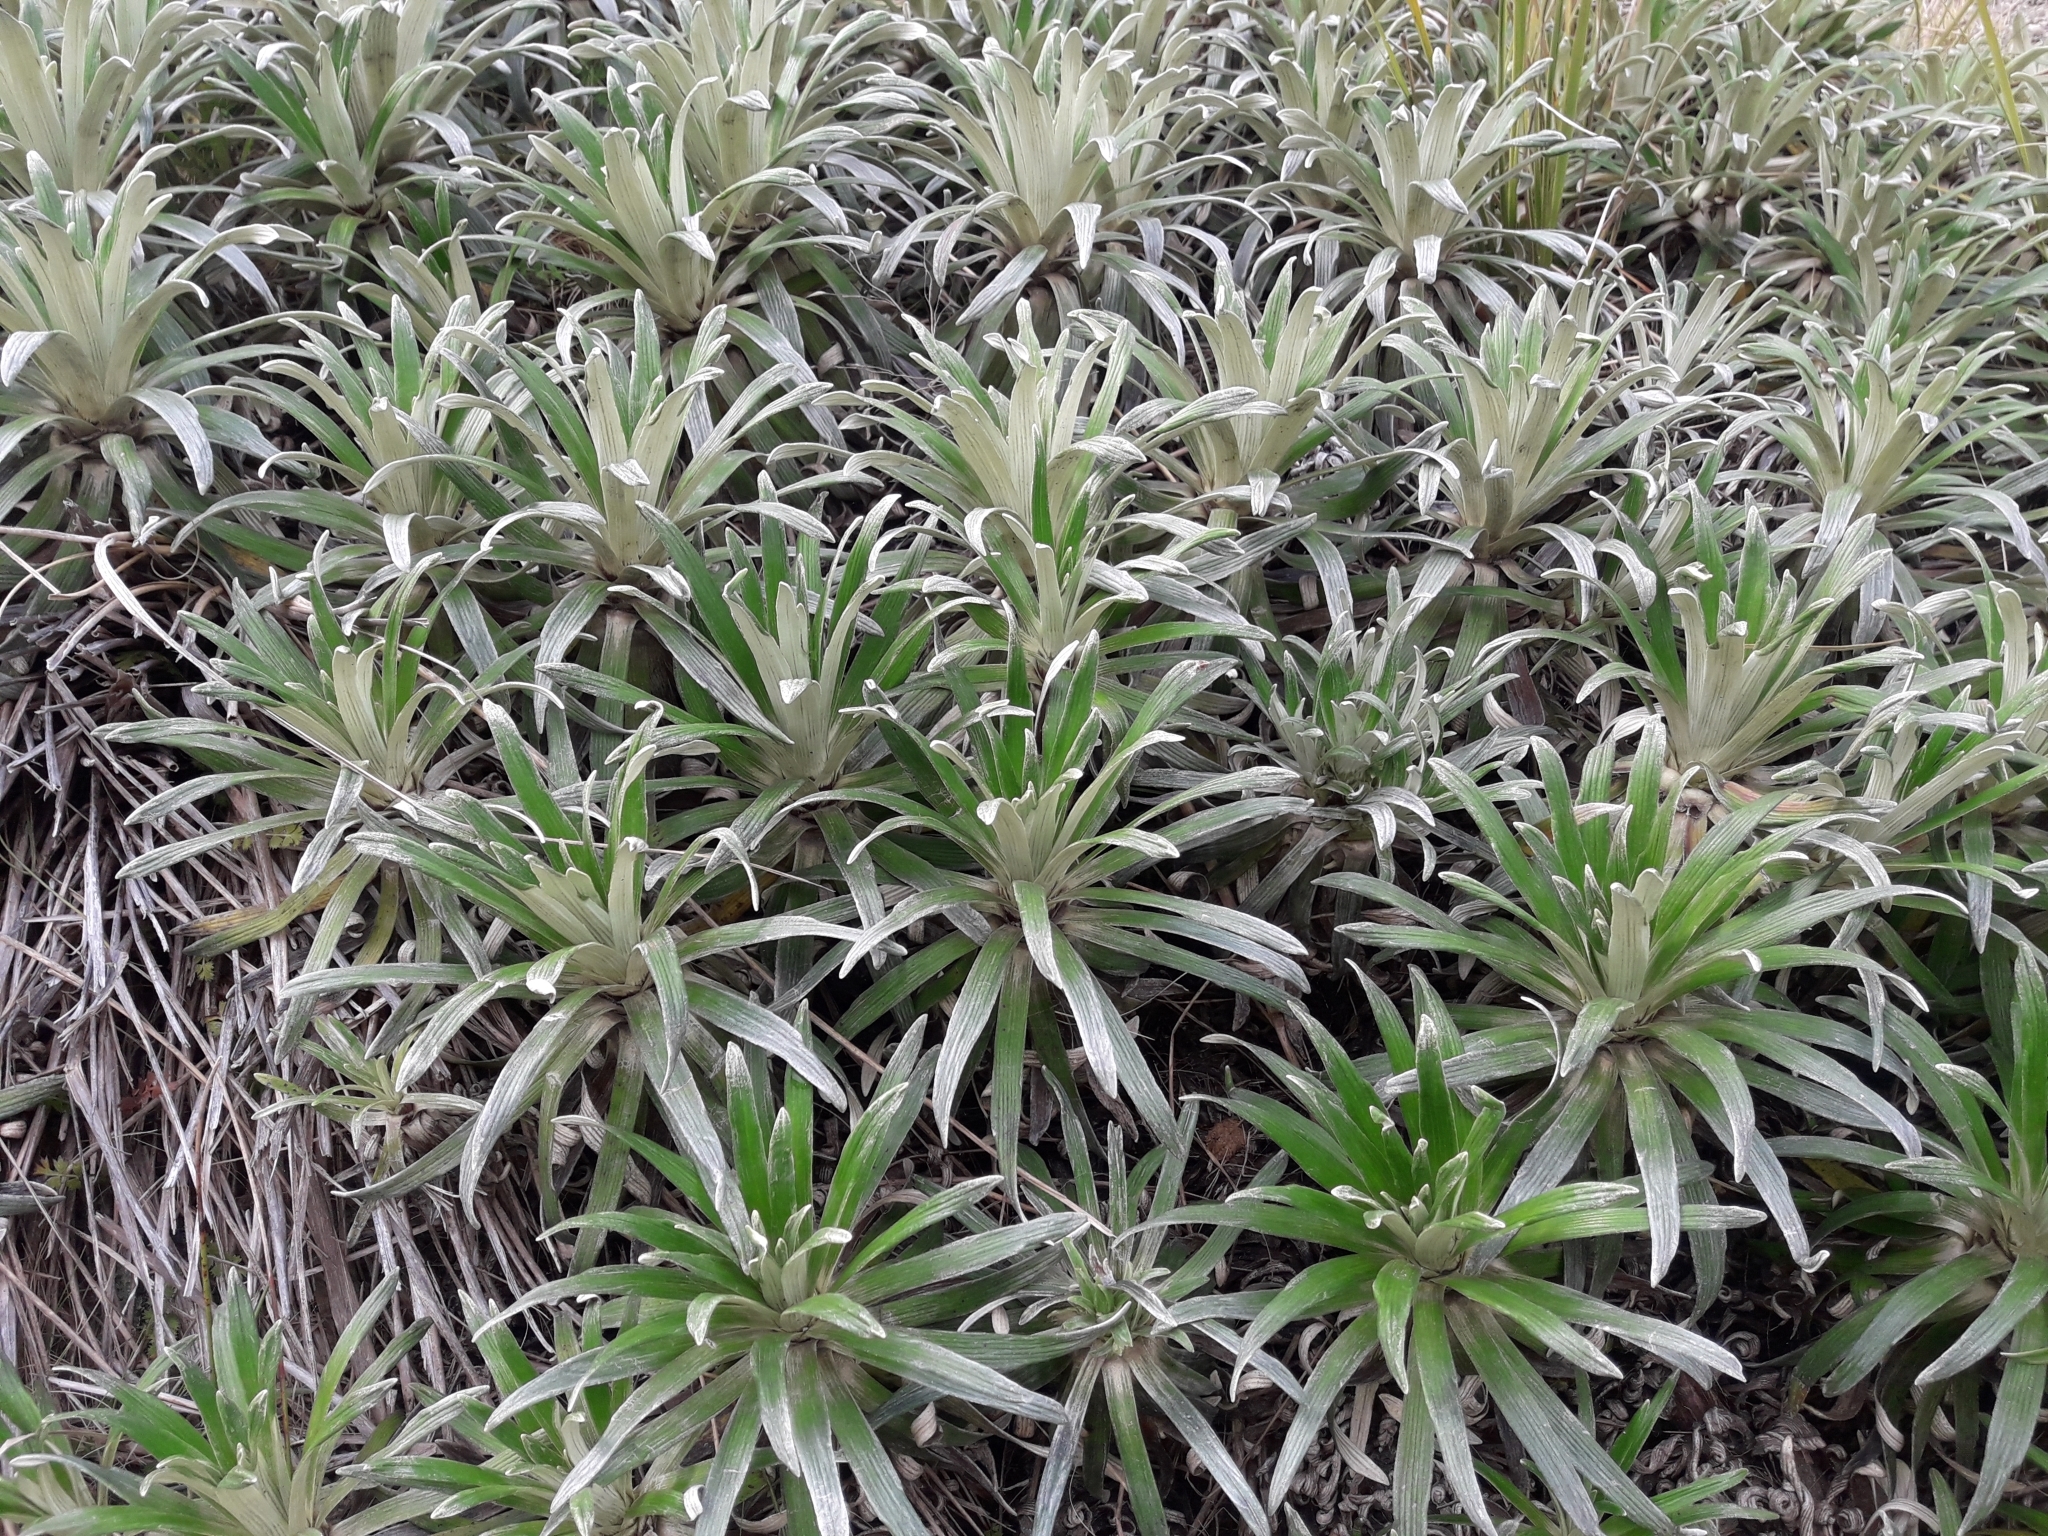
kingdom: Plantae
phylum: Tracheophyta
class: Magnoliopsida
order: Asterales
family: Asteraceae
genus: Celmisia
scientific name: Celmisia viscosa
